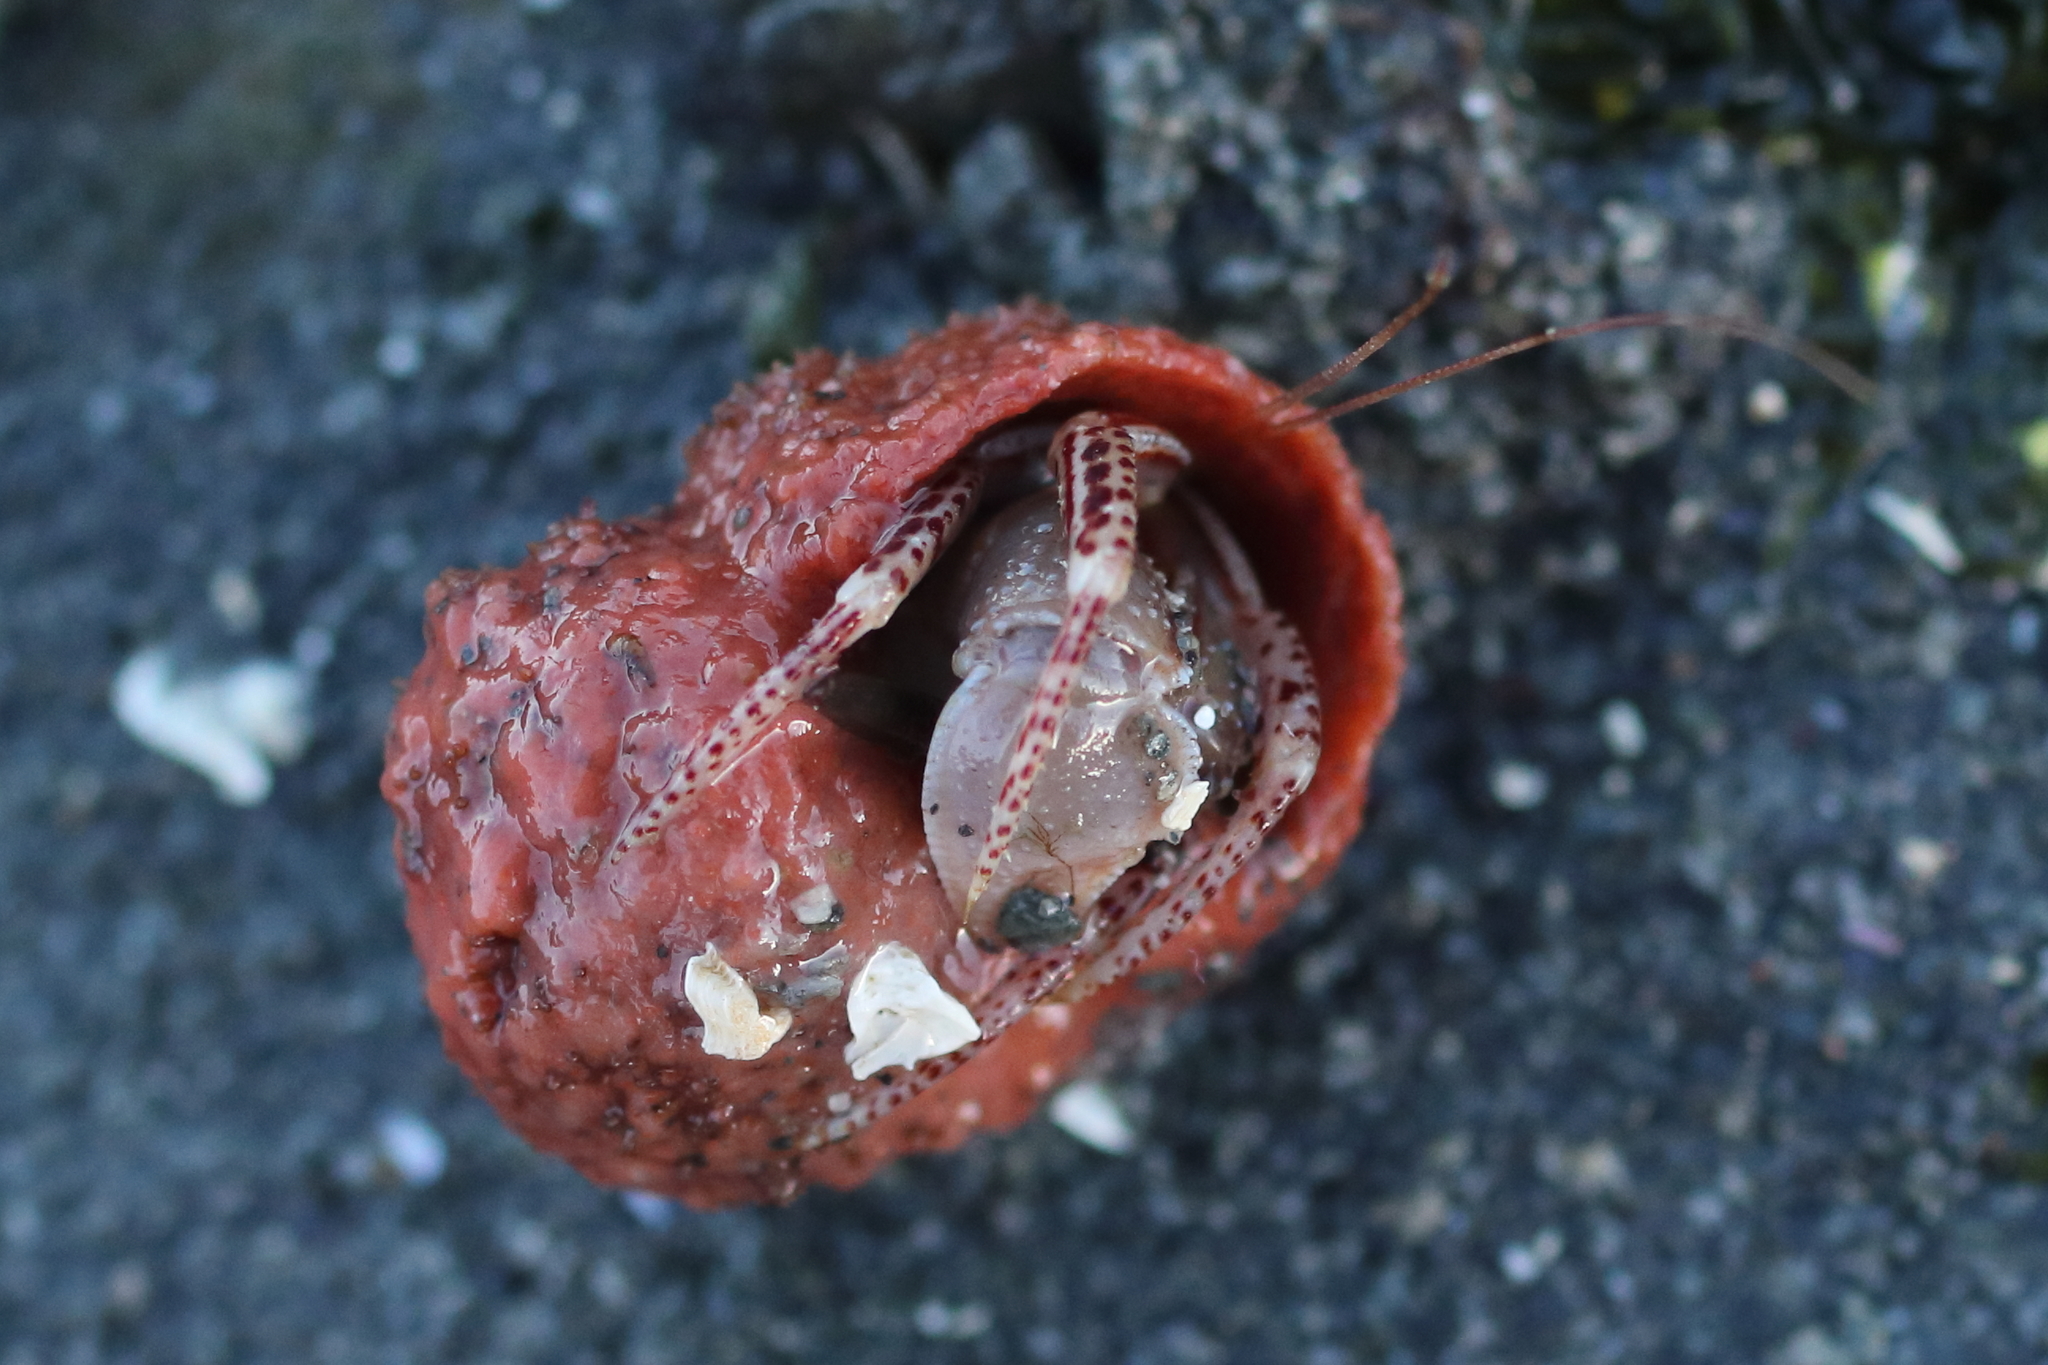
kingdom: Animalia
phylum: Arthropoda
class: Malacostraca
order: Decapoda
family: Paguridae
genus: Elassochirus
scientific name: Elassochirus tenuimanus
